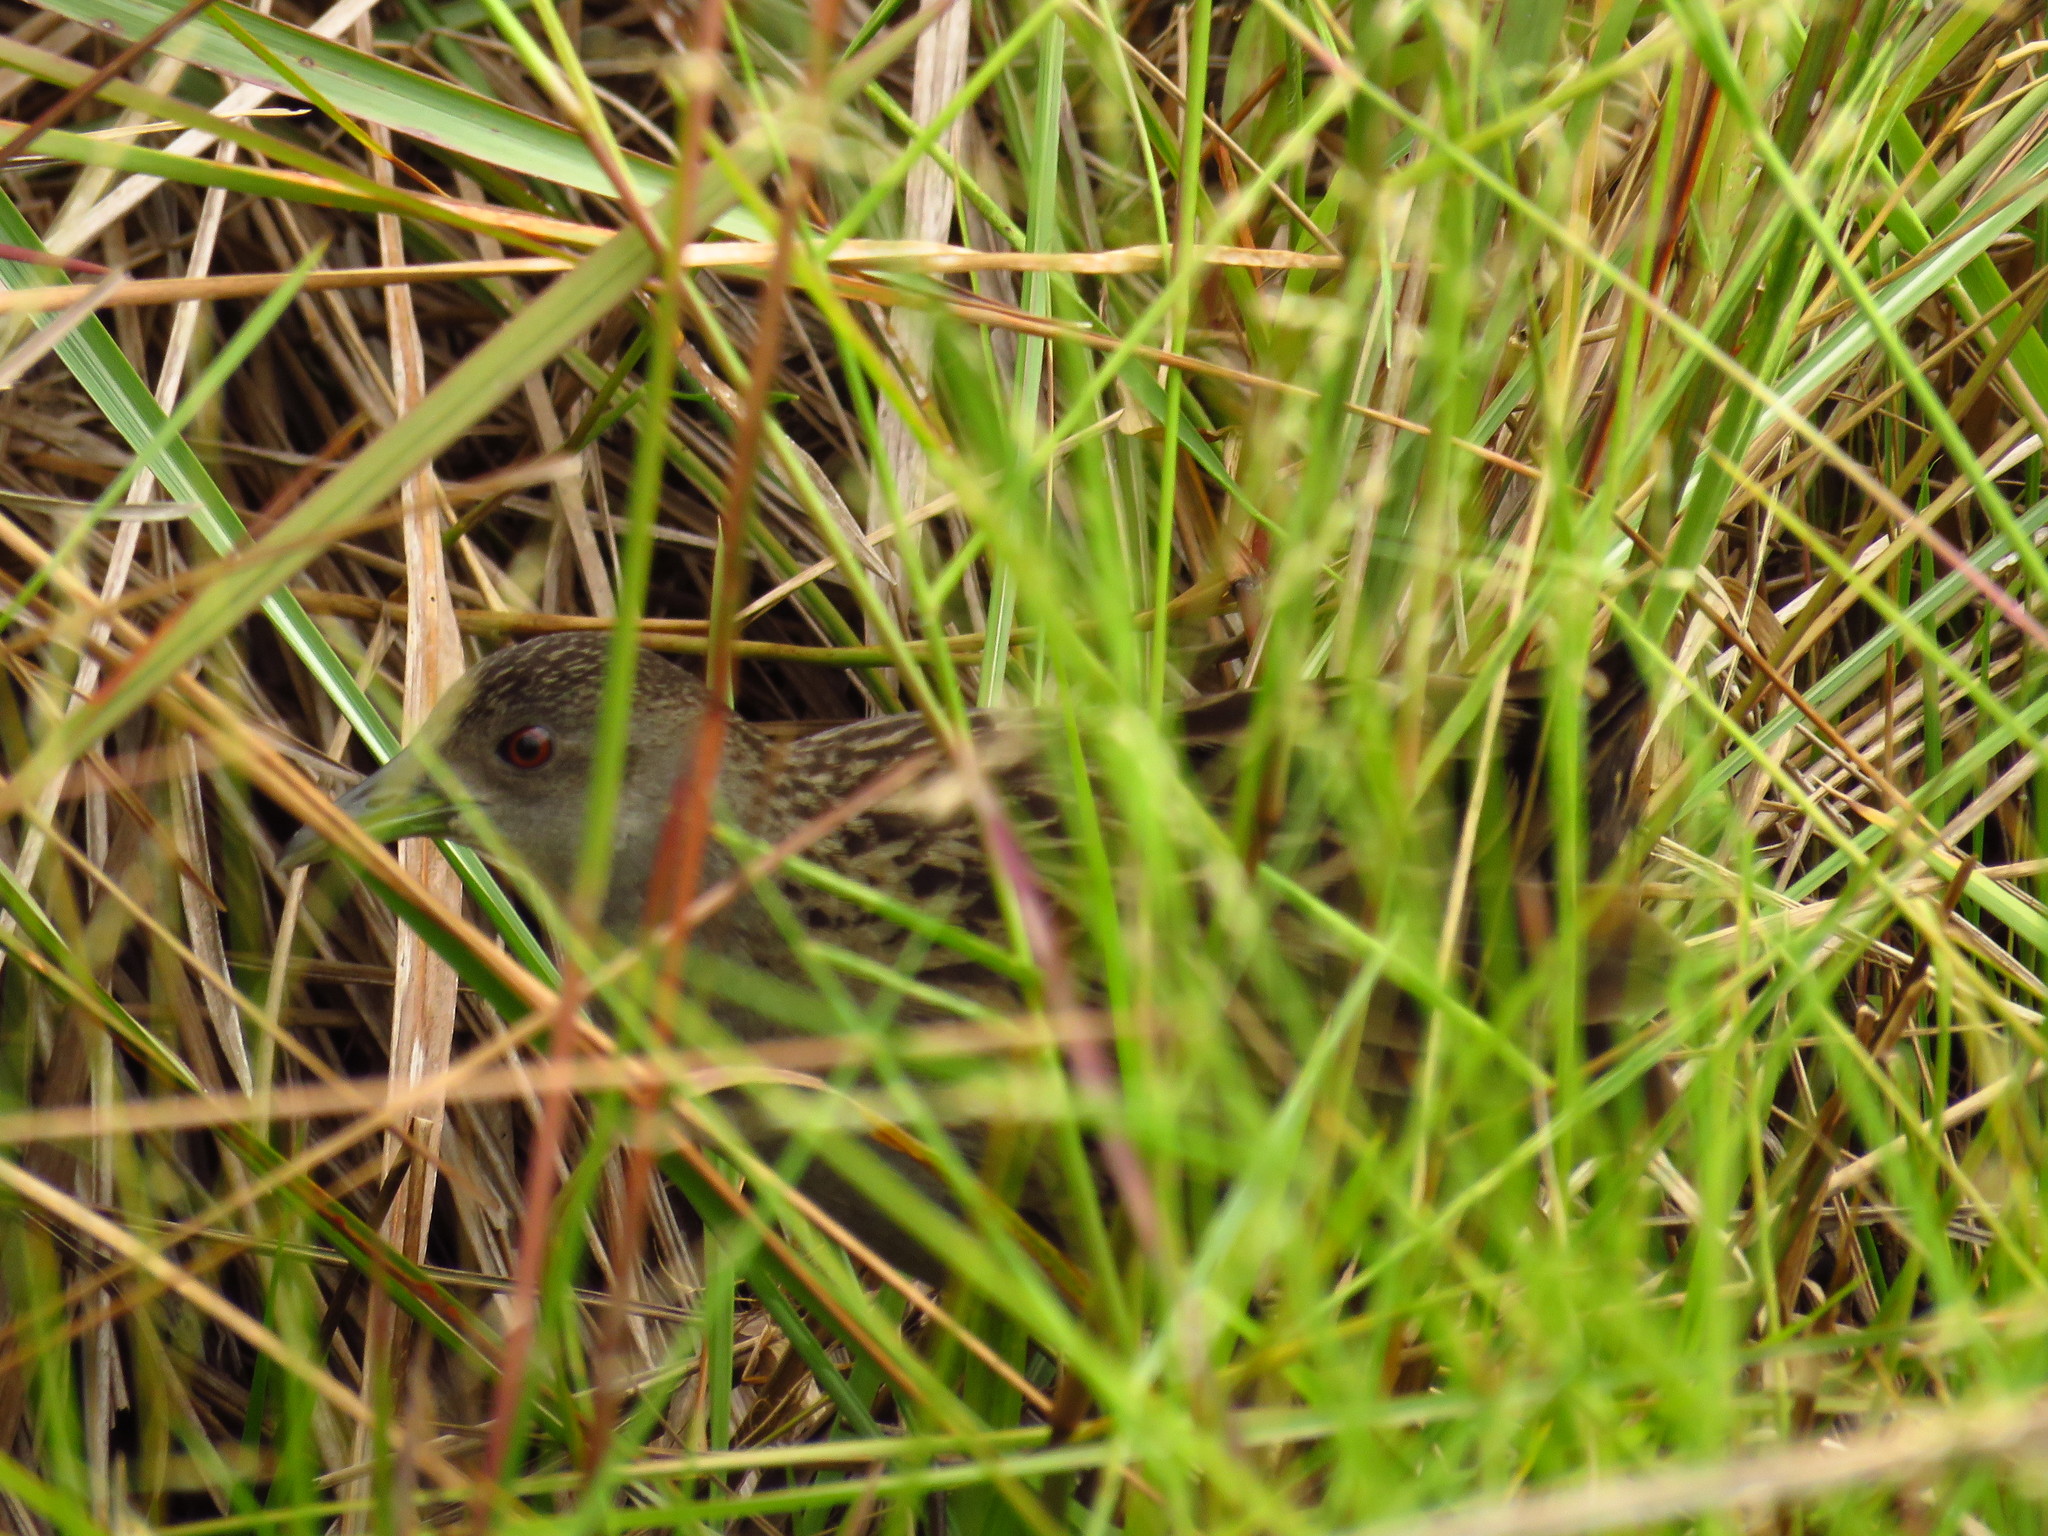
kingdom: Animalia
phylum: Chordata
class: Aves
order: Gruiformes
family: Rallidae
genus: Porzana
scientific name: Porzana albicollis
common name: Ash-throated crake
